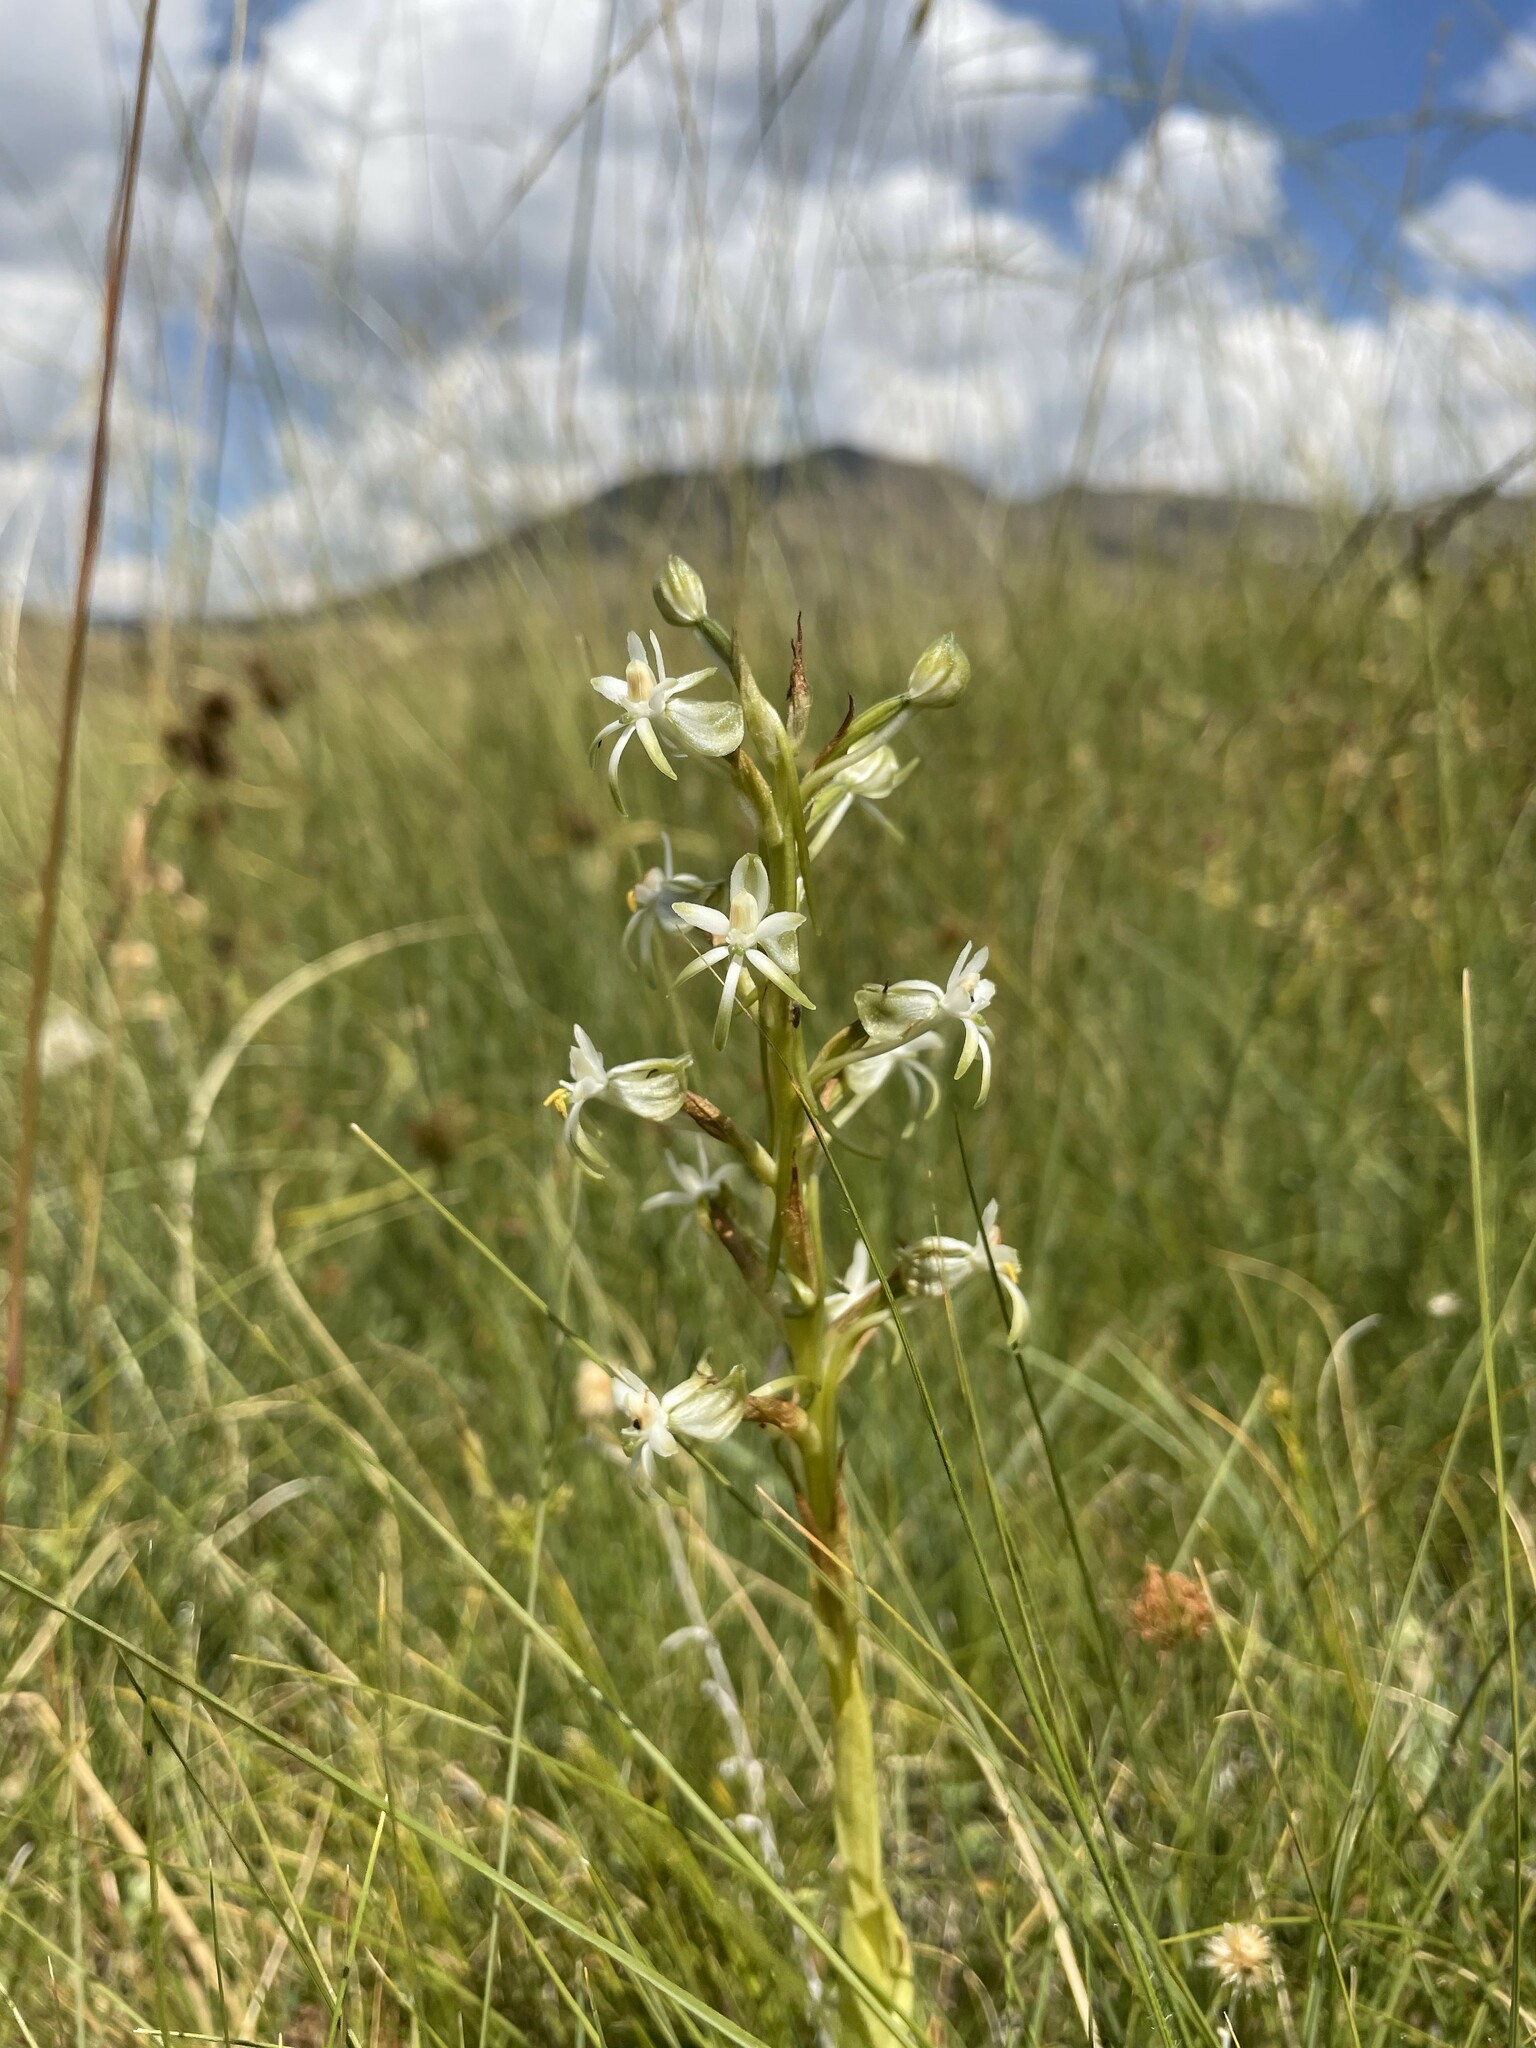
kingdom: Plantae
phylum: Tracheophyta
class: Liliopsida
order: Asparagales
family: Orchidaceae
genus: Habenaria
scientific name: Habenaria falcicornis
